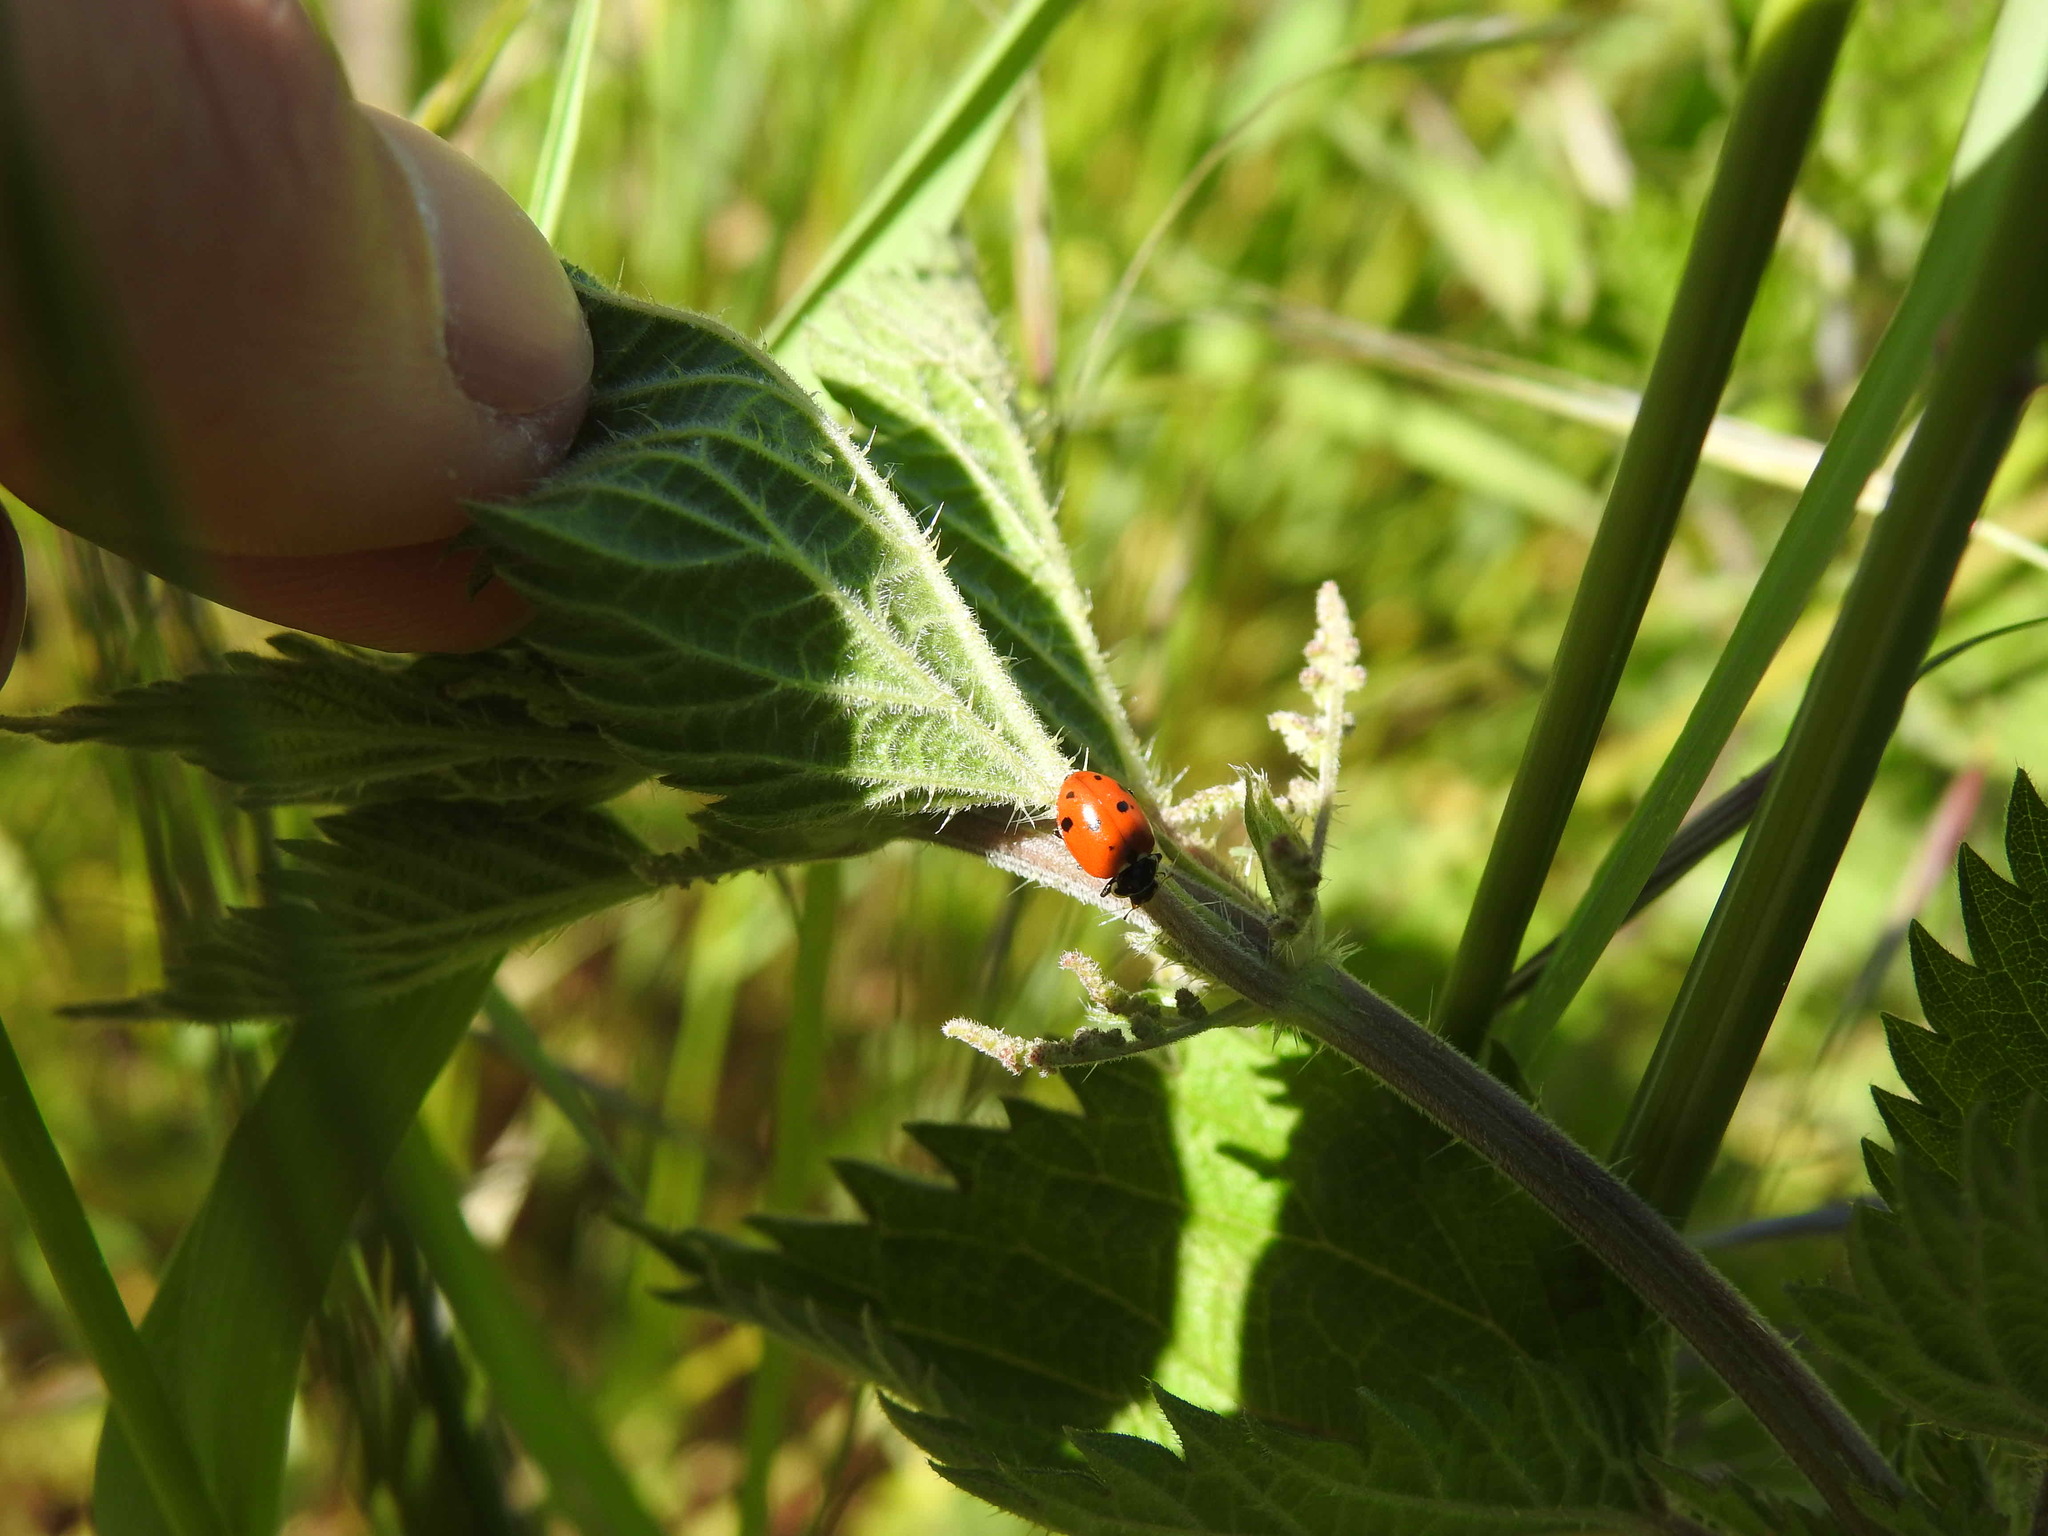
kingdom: Animalia
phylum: Arthropoda
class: Insecta
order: Coleoptera
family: Coccinellidae
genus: Hippodamia
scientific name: Hippodamia variegata
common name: Ladybird beetle
